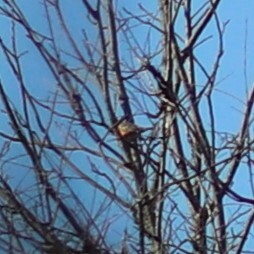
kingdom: Animalia
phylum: Chordata
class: Aves
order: Passeriformes
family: Turdidae
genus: Turdus
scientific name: Turdus migratorius
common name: American robin
